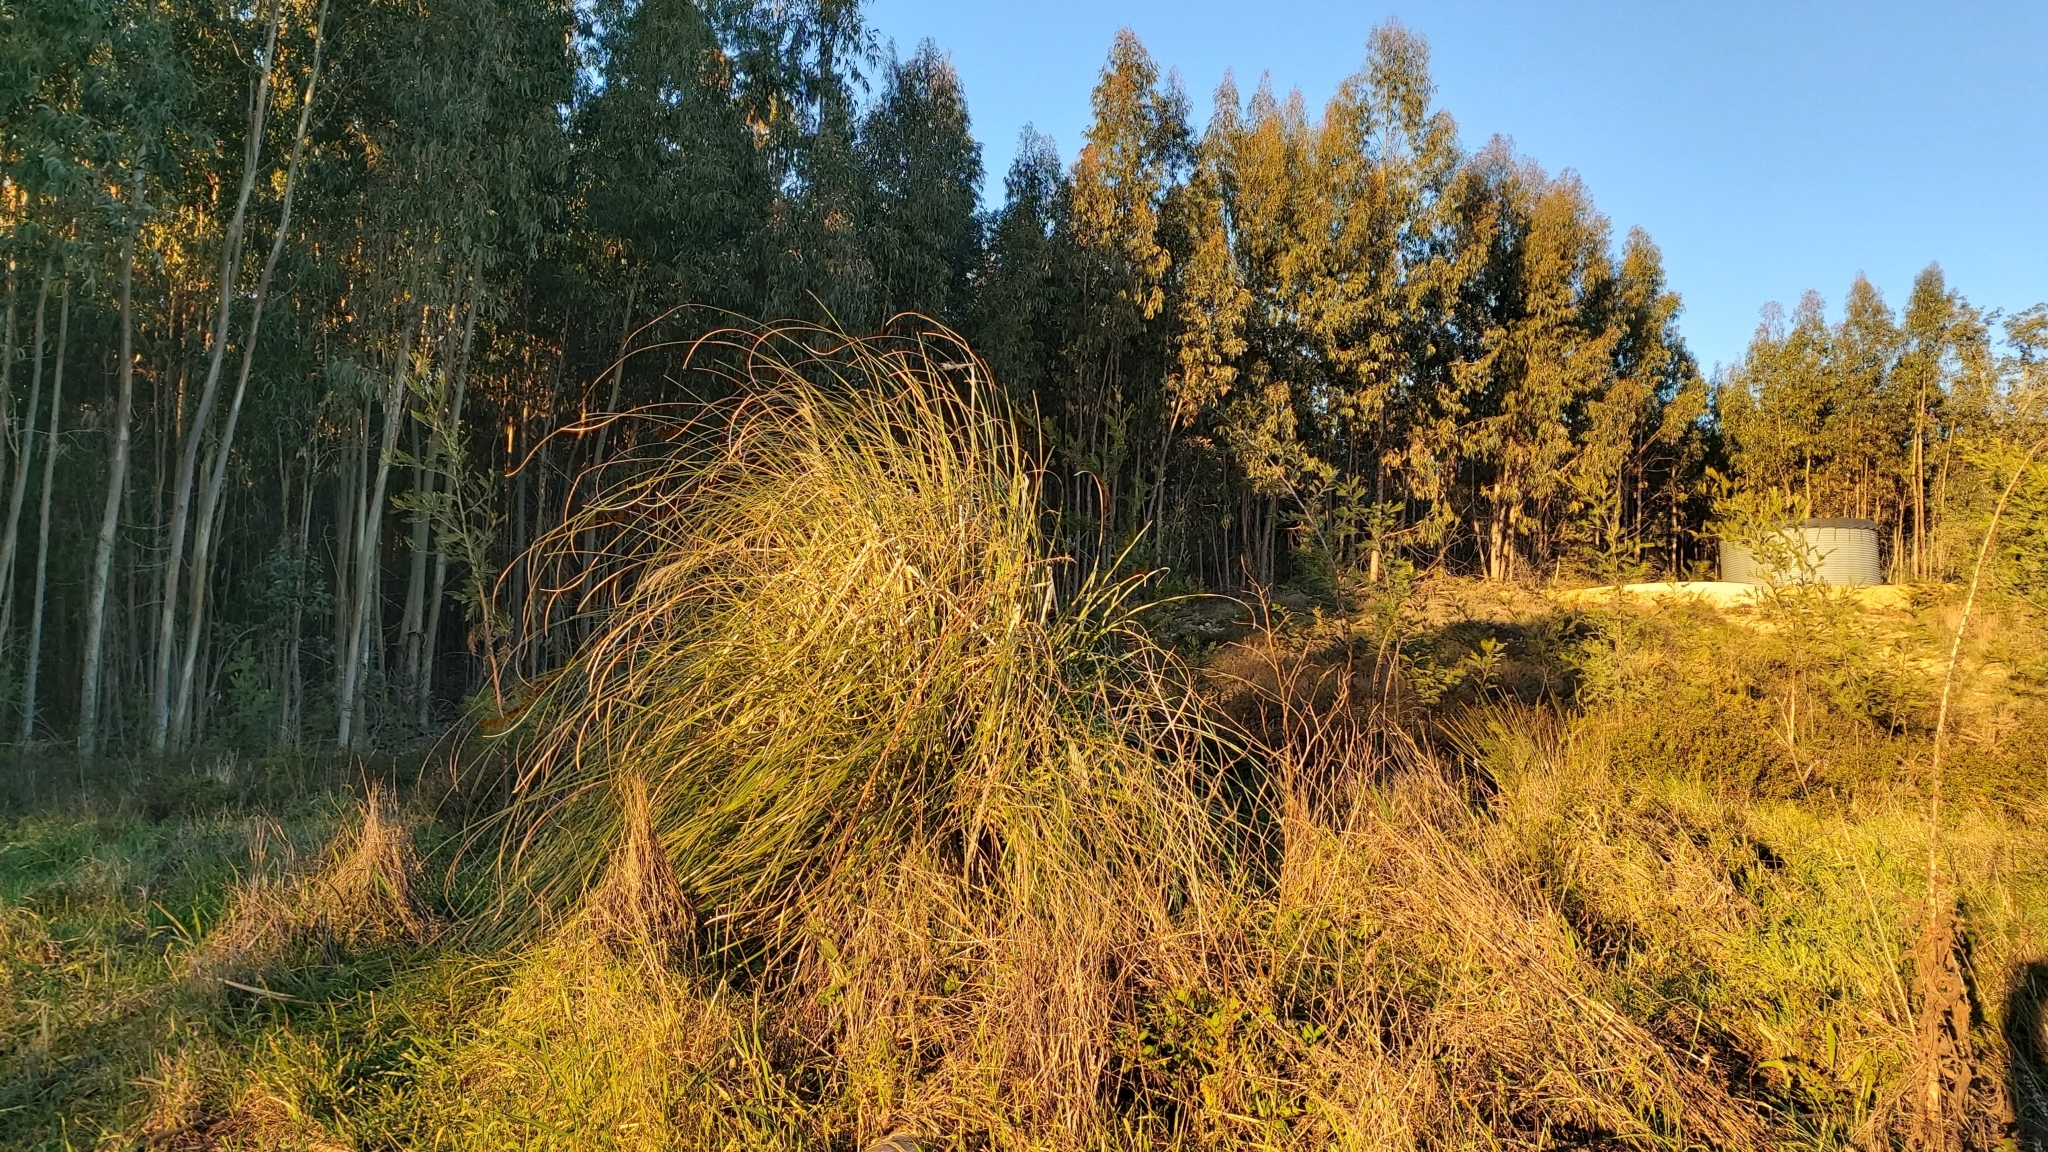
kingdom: Plantae
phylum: Tracheophyta
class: Liliopsida
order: Poales
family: Poaceae
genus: Cortaderia
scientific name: Cortaderia selloana
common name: Uruguayan pampas grass
